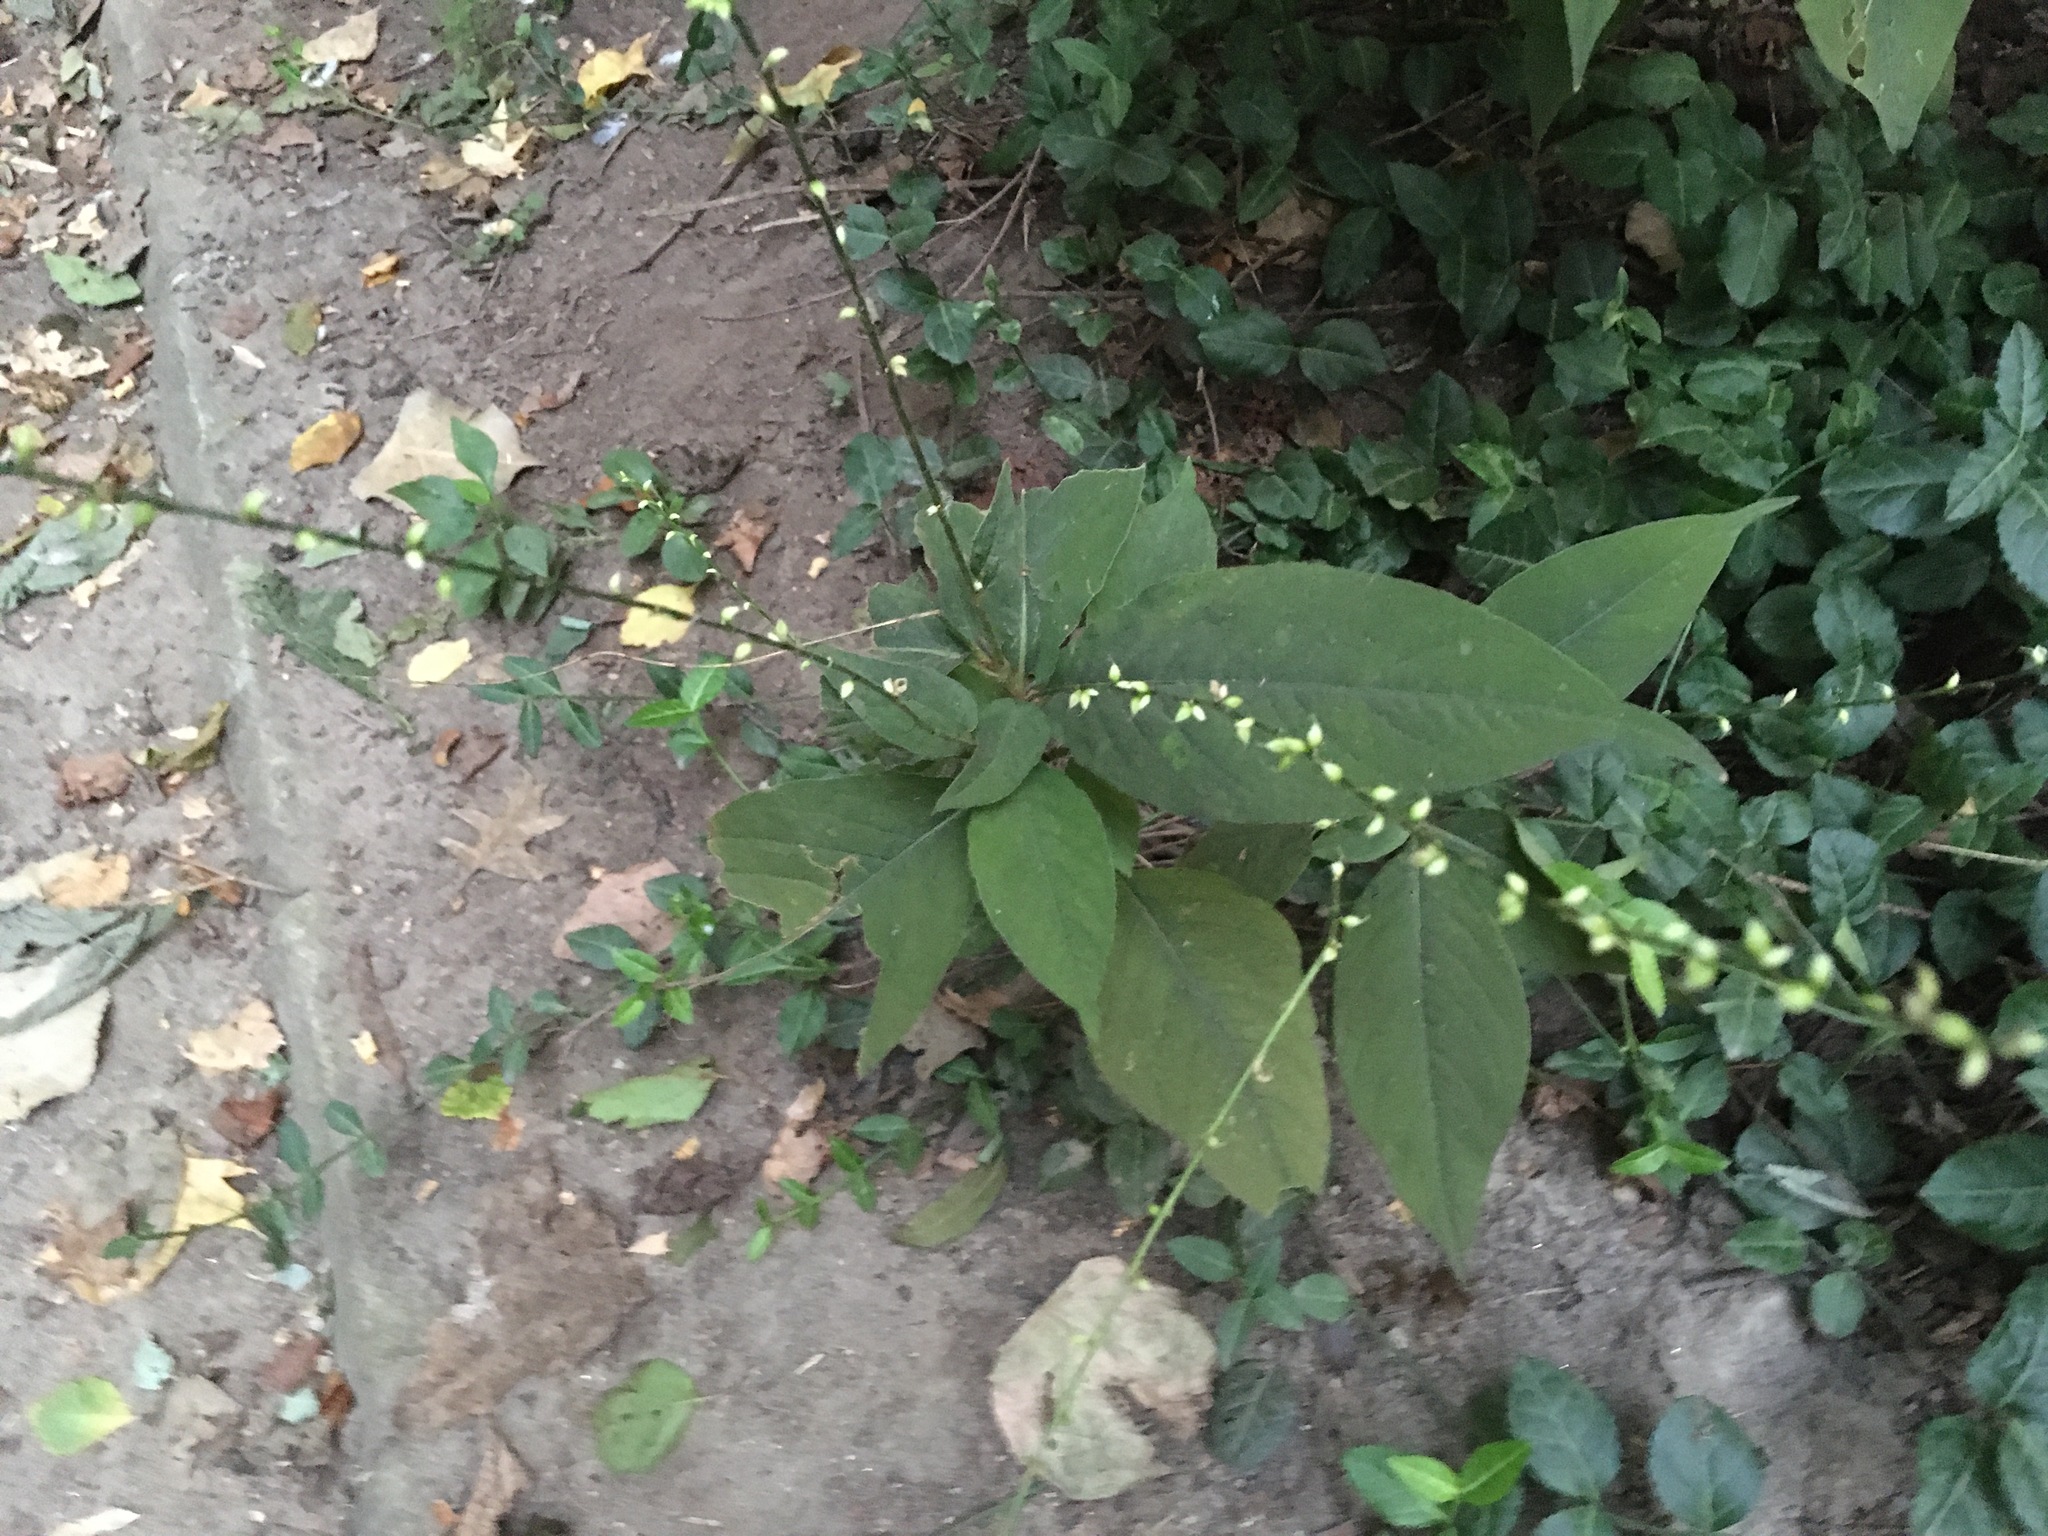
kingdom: Plantae
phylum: Tracheophyta
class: Magnoliopsida
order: Caryophyllales
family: Polygonaceae
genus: Persicaria
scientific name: Persicaria virginiana
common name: Jumpseed
